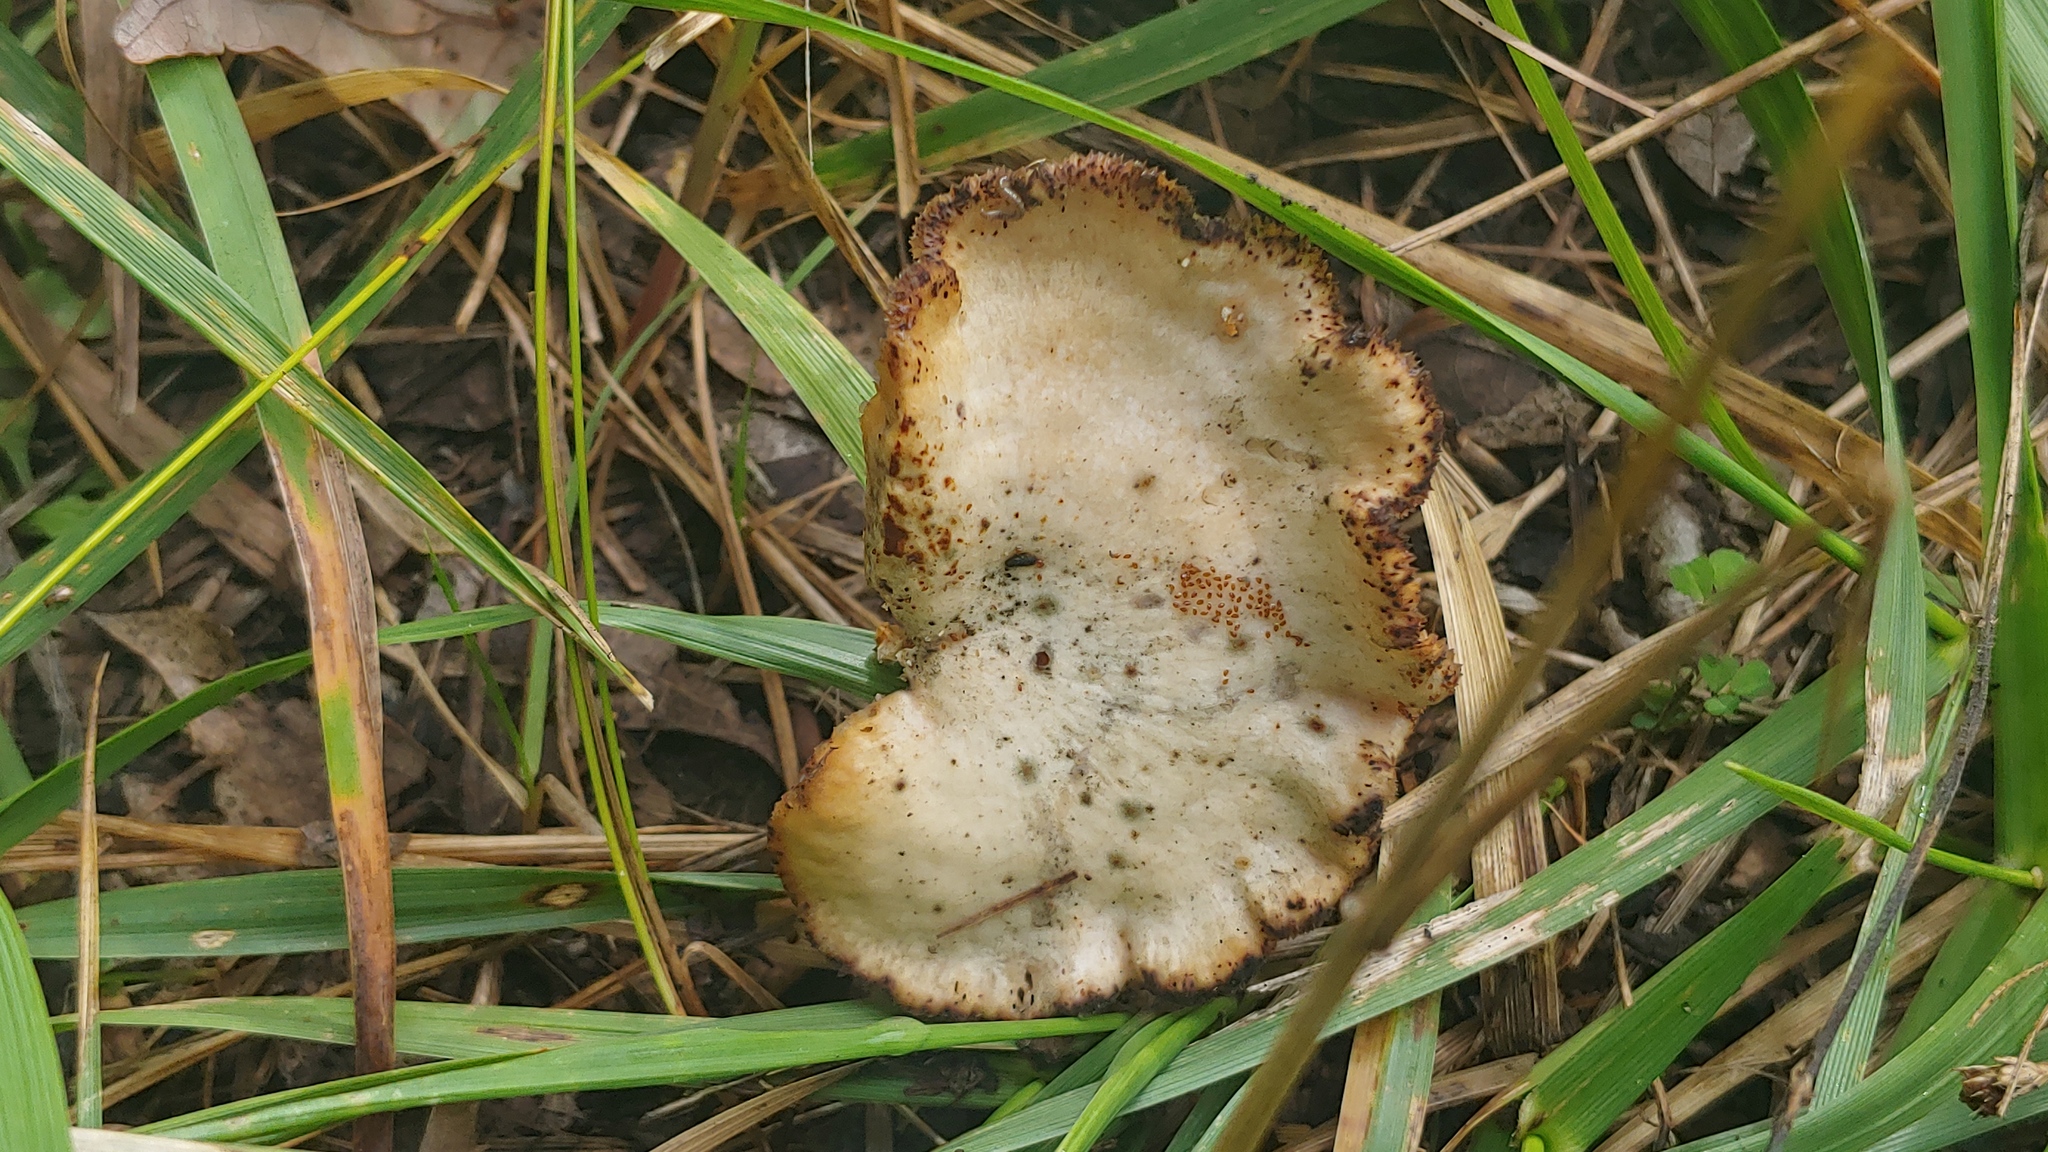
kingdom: Fungi
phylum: Basidiomycota
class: Agaricomycetes
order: Polyporales
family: Polyporaceae
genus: Neofavolus
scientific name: Neofavolus alveolaris
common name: Hexagonal-pored polypore
